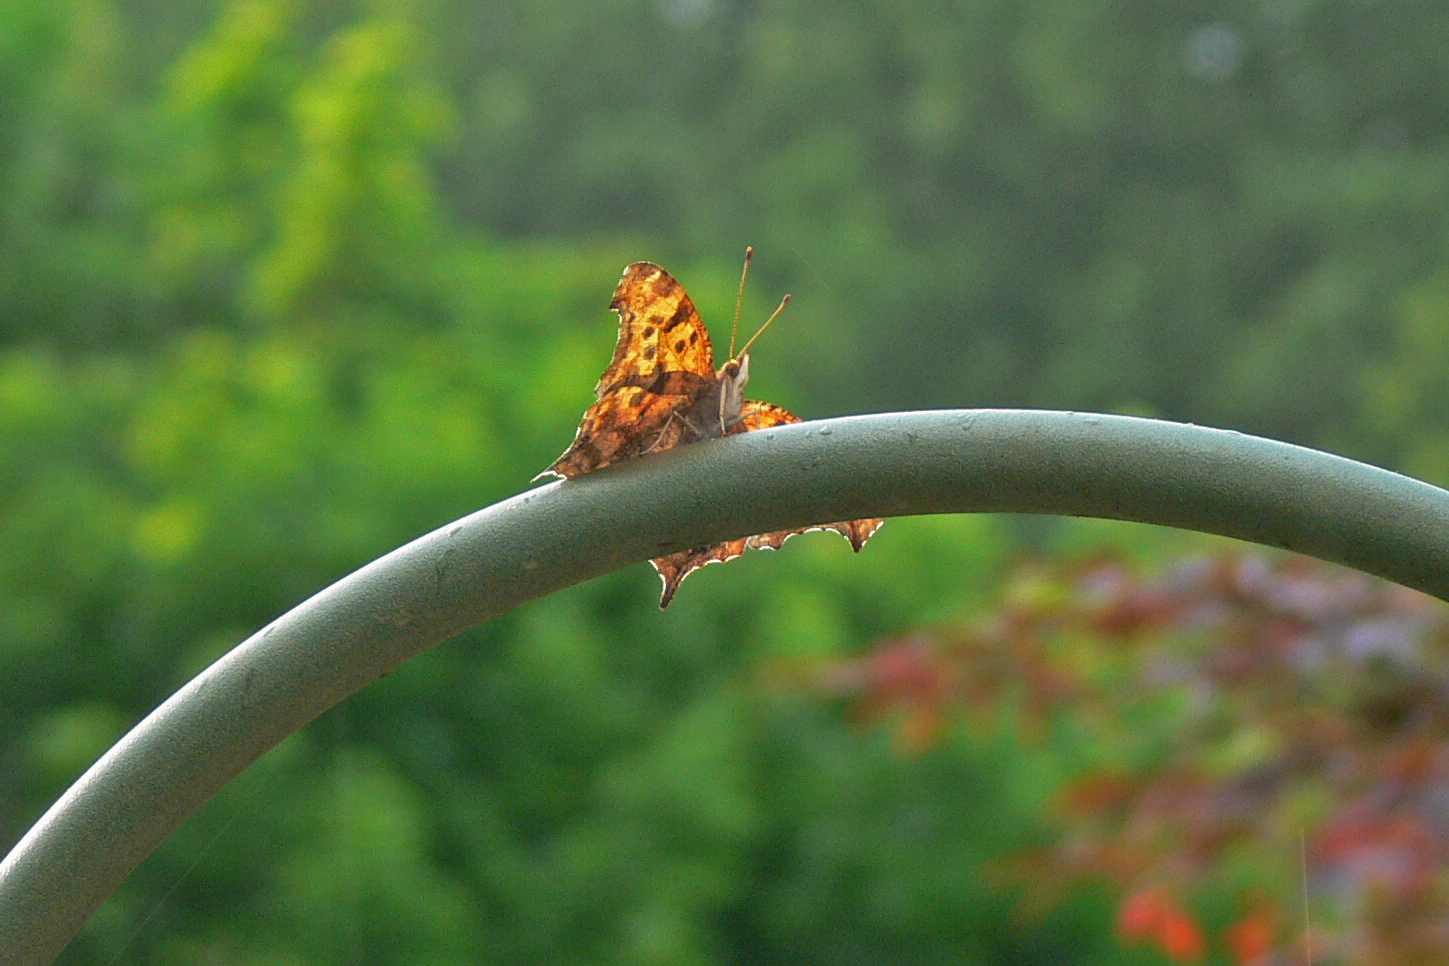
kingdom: Animalia
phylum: Arthropoda
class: Insecta
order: Lepidoptera
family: Nymphalidae
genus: Polygonia
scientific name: Polygonia interrogationis
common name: Question mark
